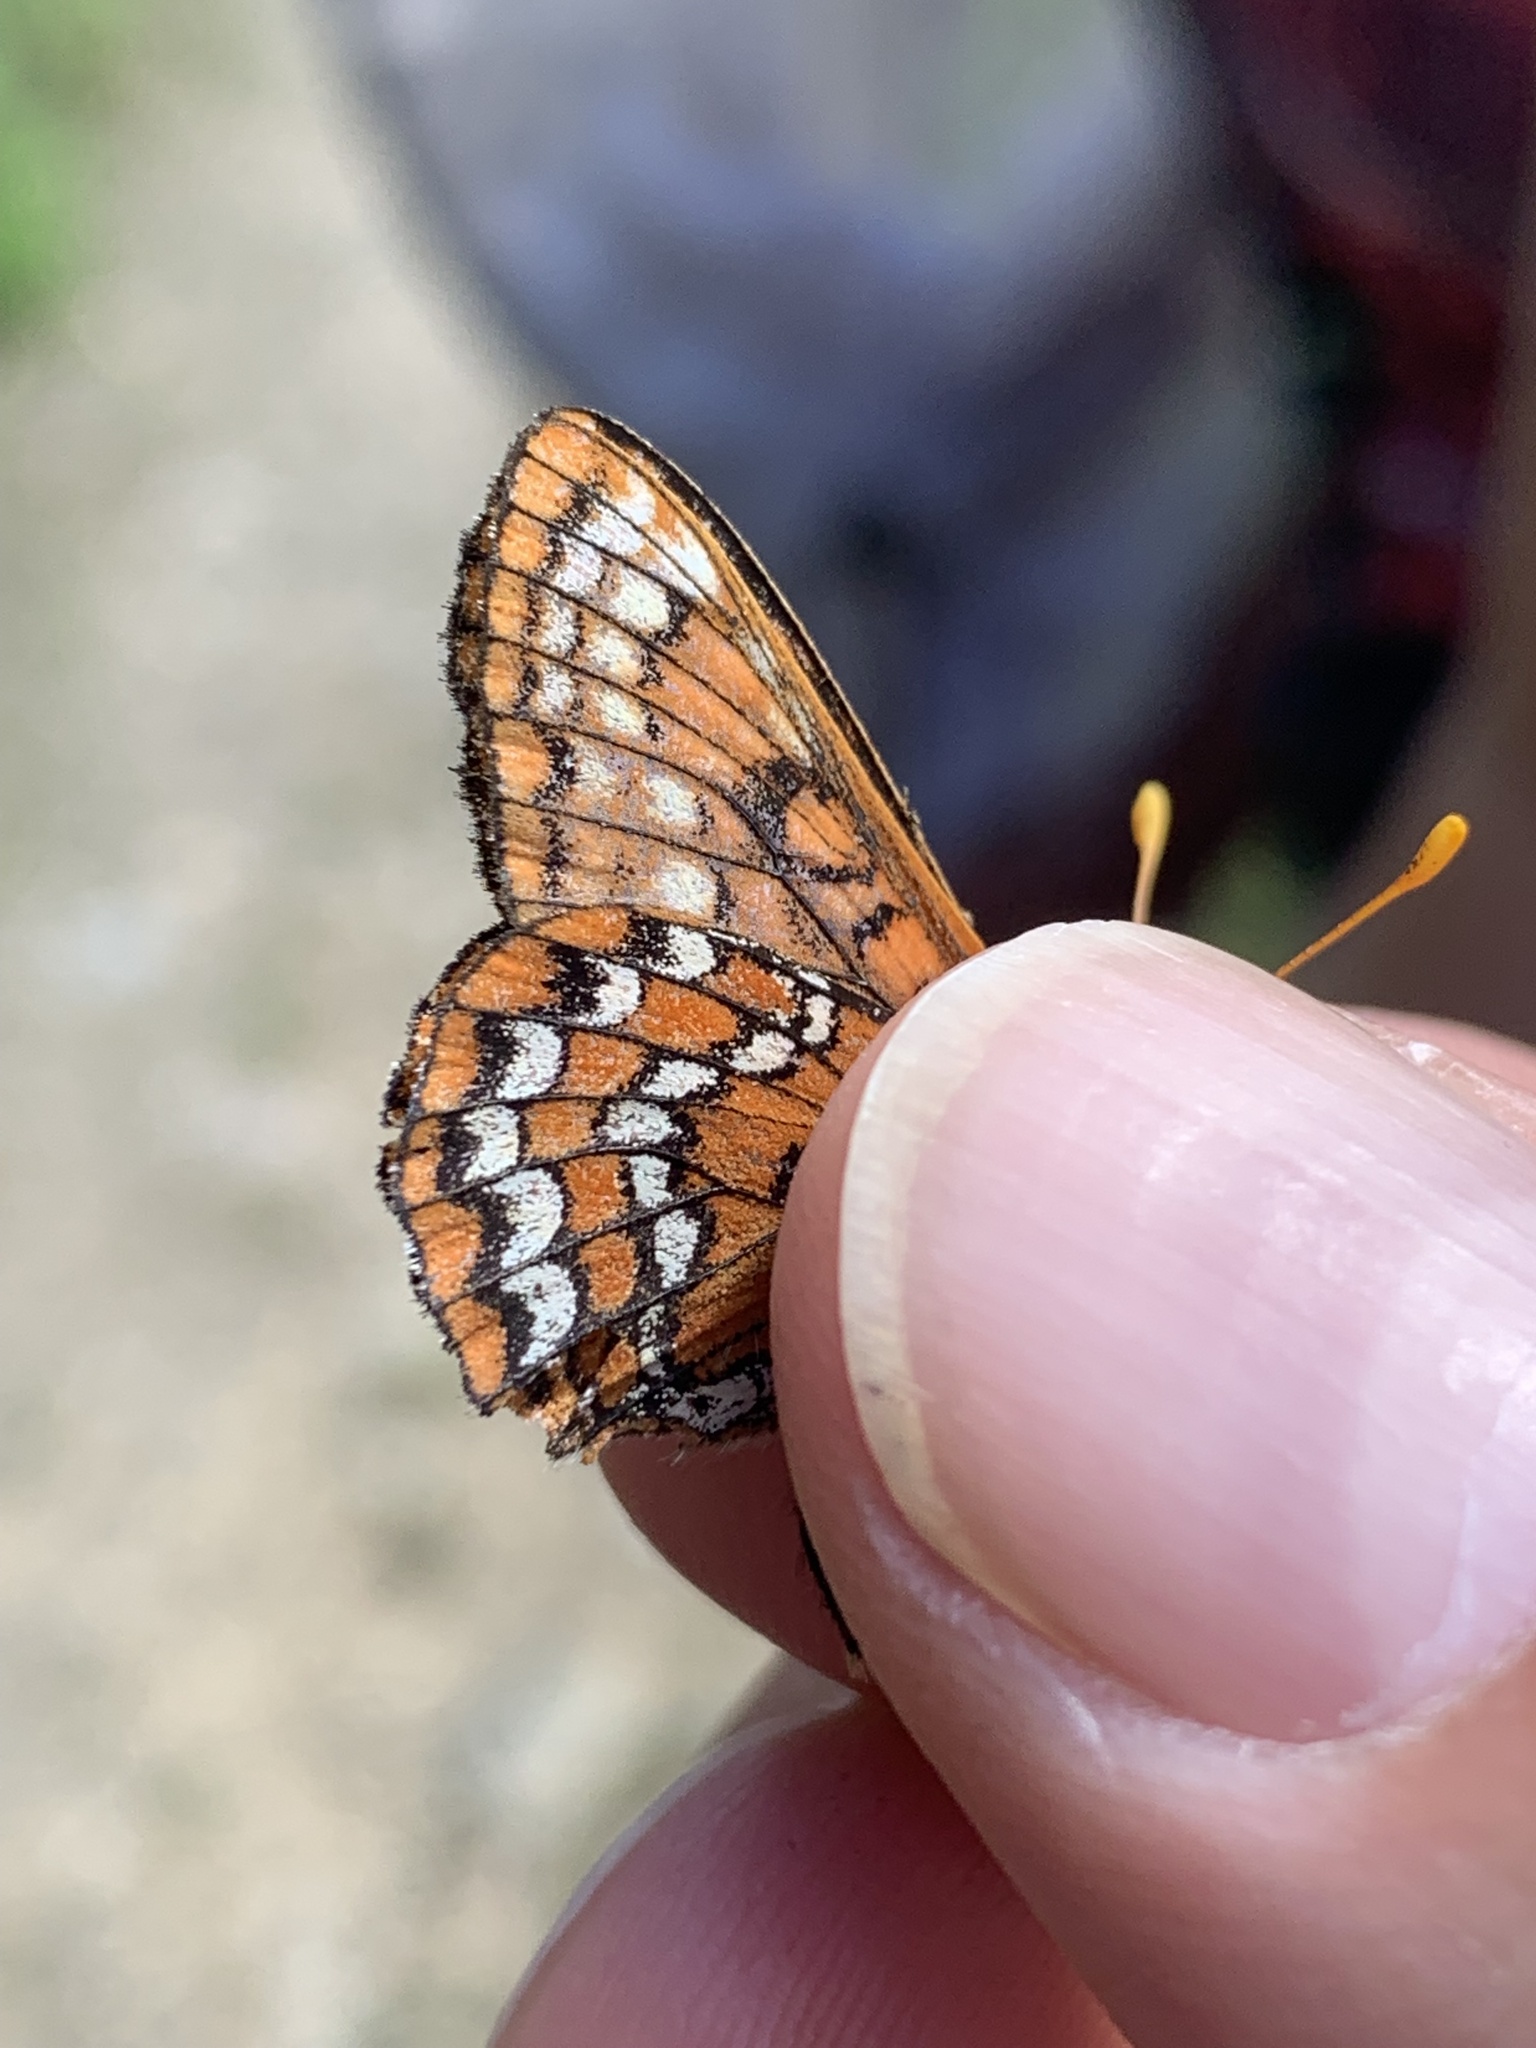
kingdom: Animalia
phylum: Arthropoda
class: Insecta
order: Lepidoptera
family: Nymphalidae
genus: Occidryas
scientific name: Occidryas anicia
